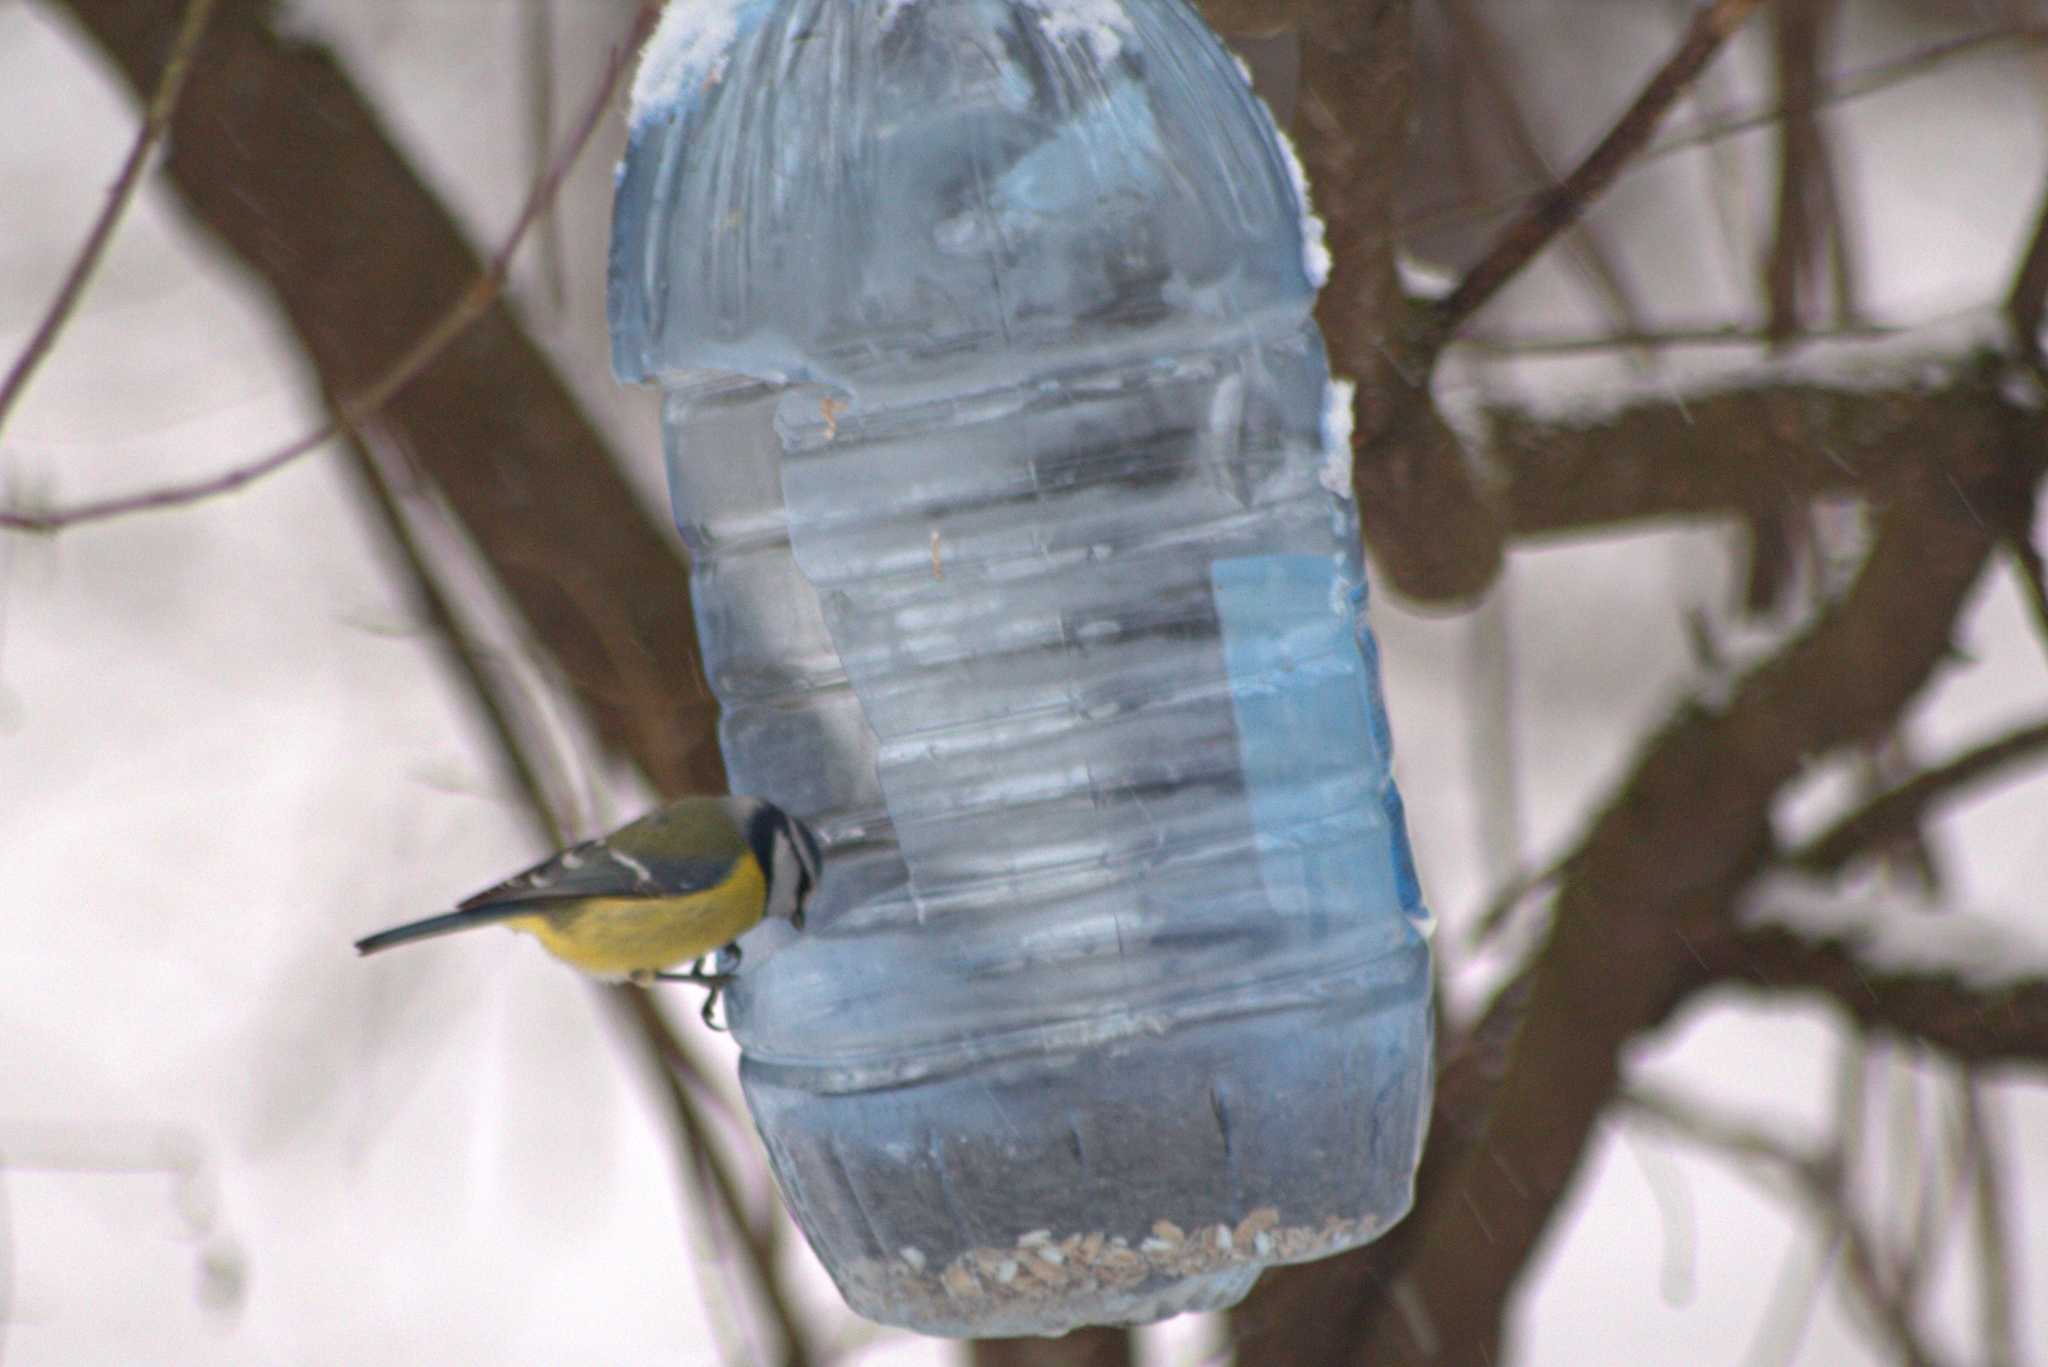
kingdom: Animalia
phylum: Chordata
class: Aves
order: Passeriformes
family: Paridae
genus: Cyanistes
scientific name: Cyanistes caeruleus
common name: Eurasian blue tit
